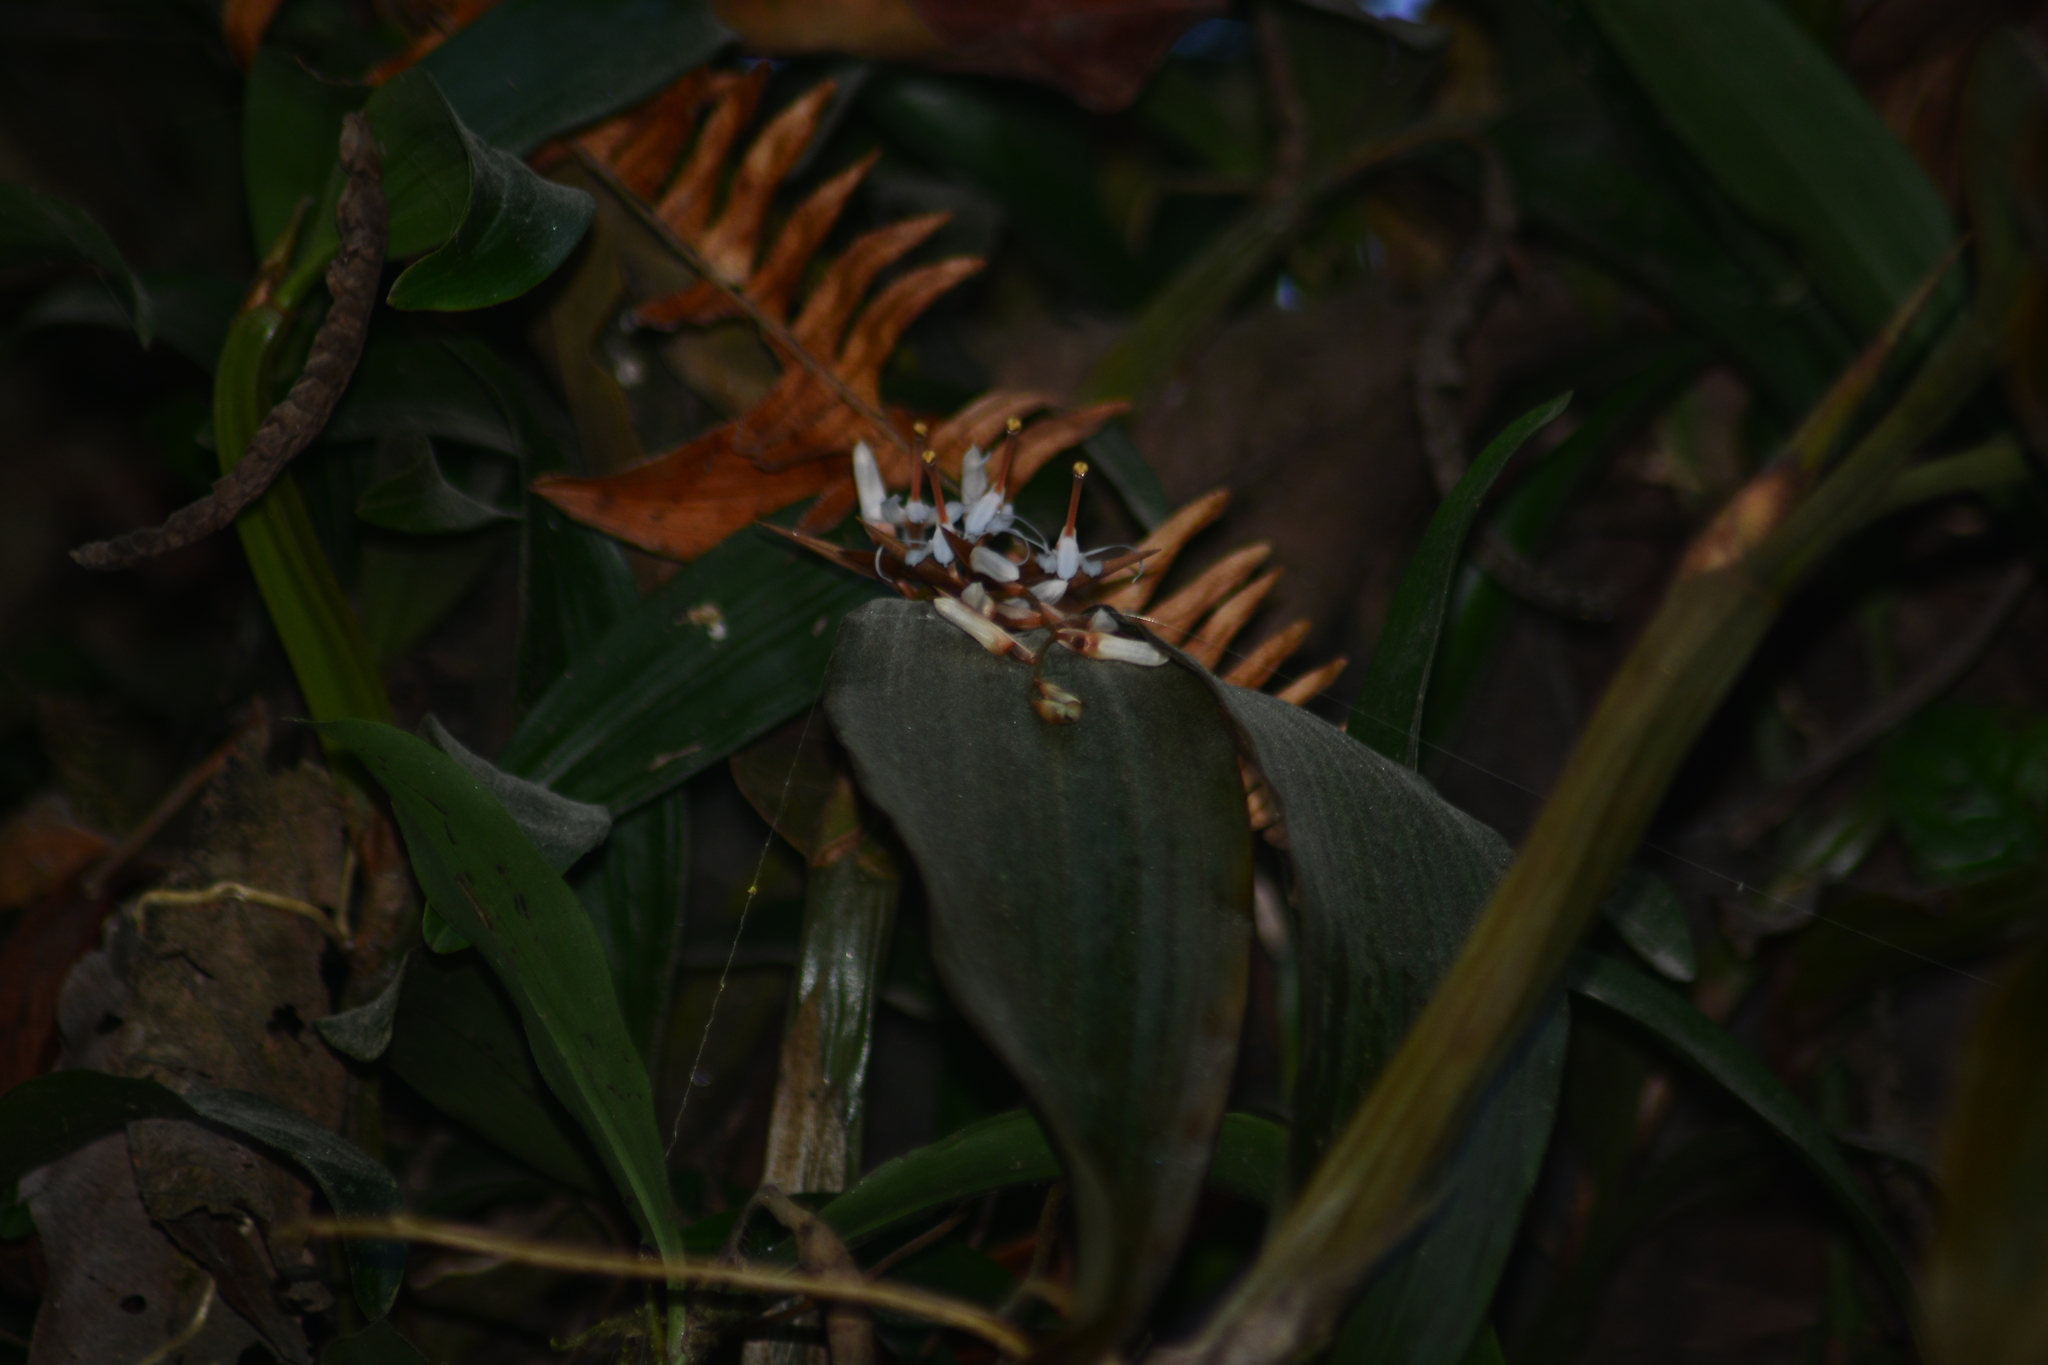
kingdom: Plantae
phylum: Tracheophyta
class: Liliopsida
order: Asparagales
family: Orchidaceae
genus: Coelogyne
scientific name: Coelogyne porrecta
